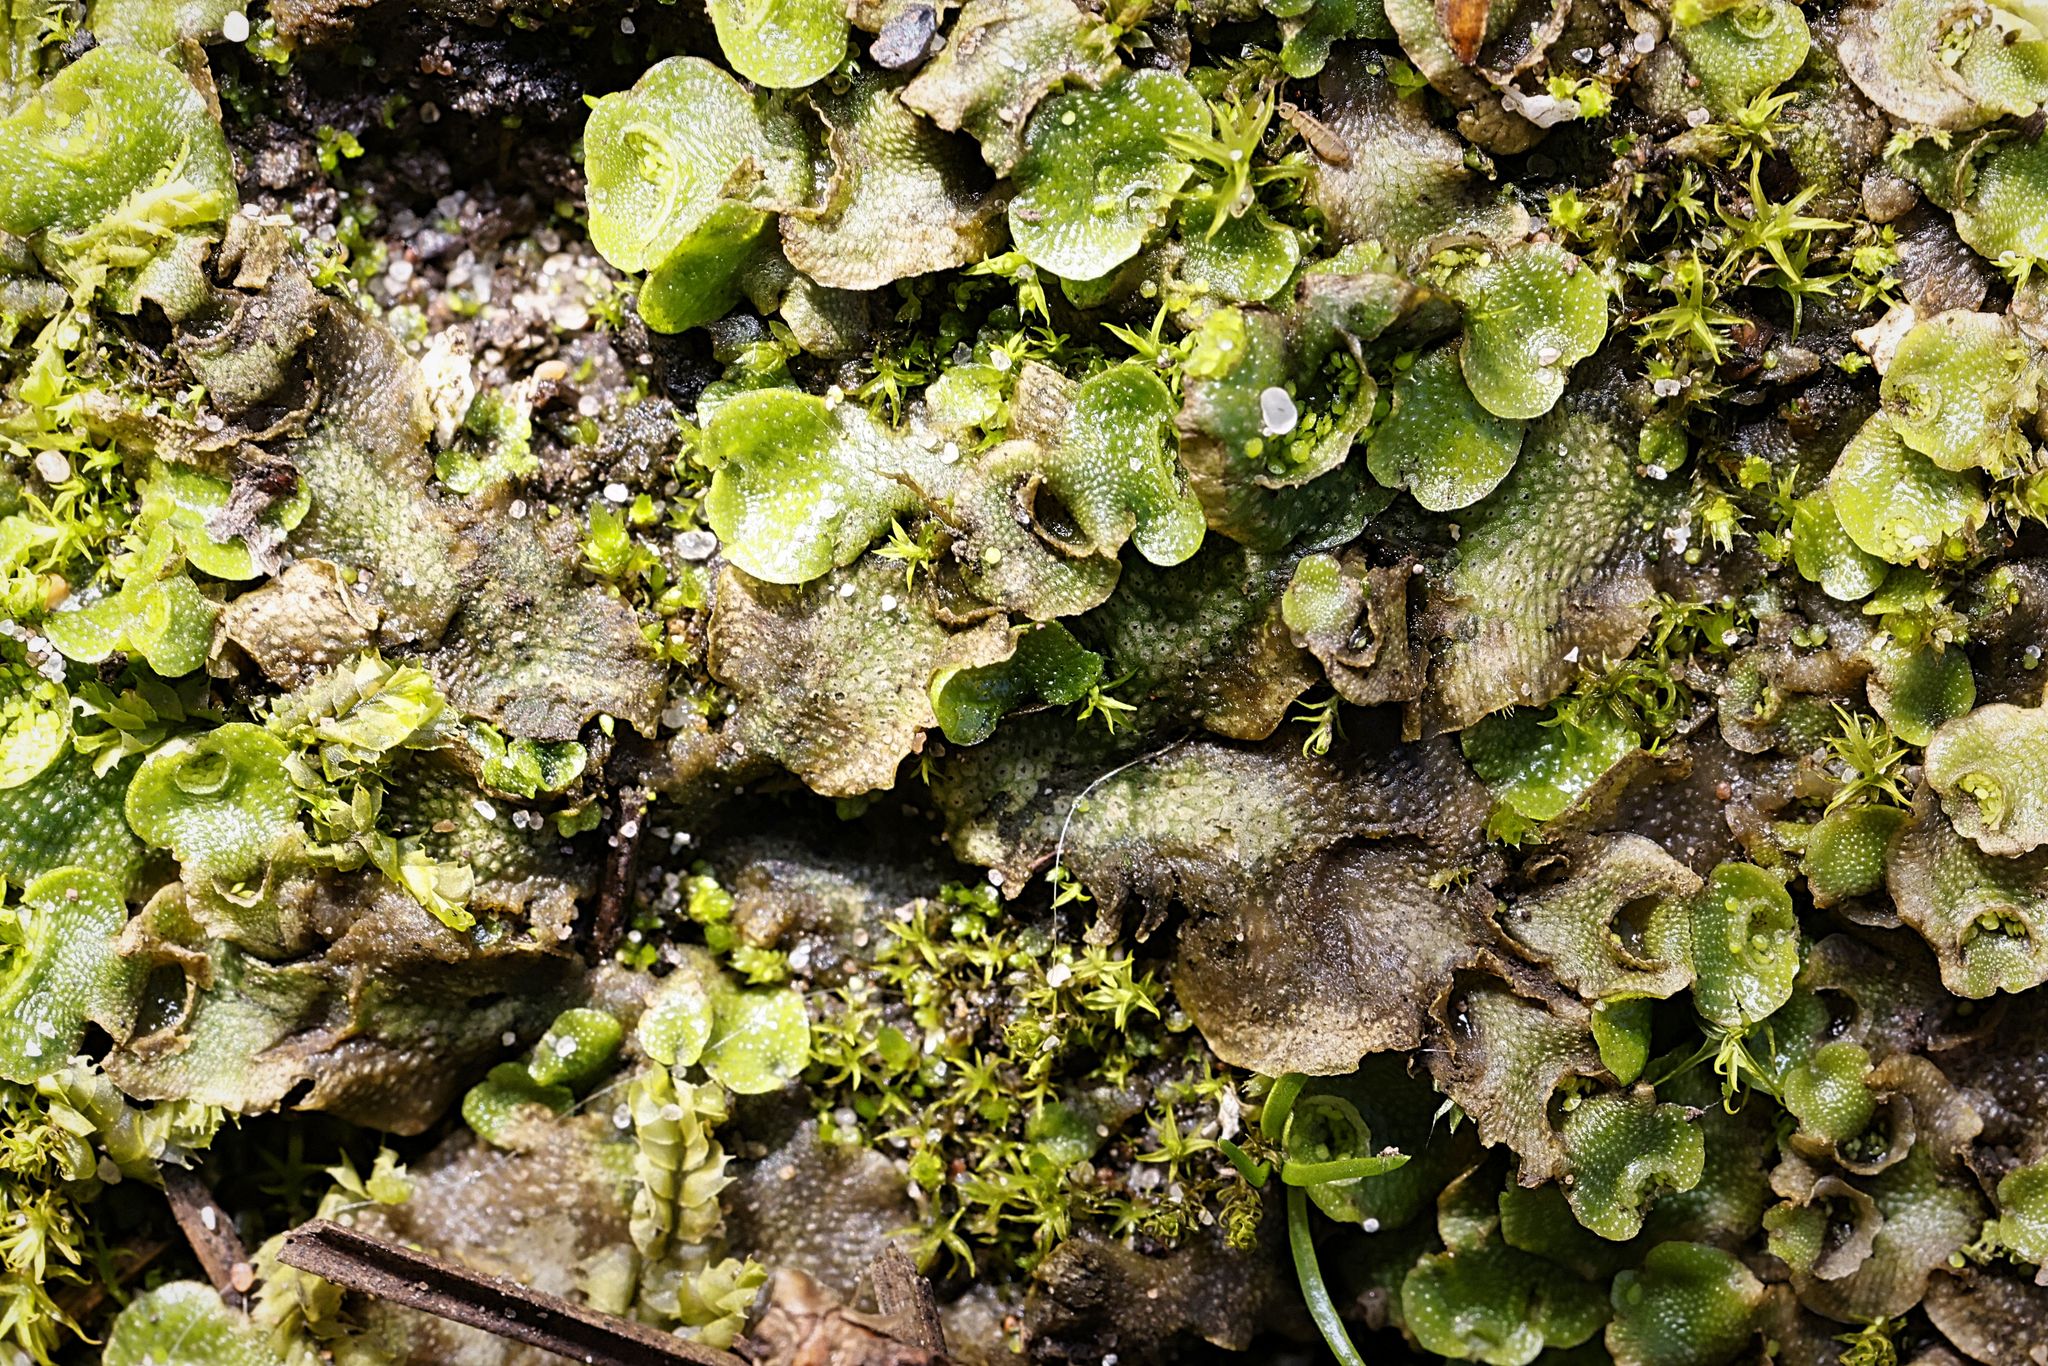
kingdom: Plantae
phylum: Marchantiophyta
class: Marchantiopsida
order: Lunulariales
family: Lunulariaceae
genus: Lunularia
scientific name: Lunularia cruciata
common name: Crescent-cup liverwort
